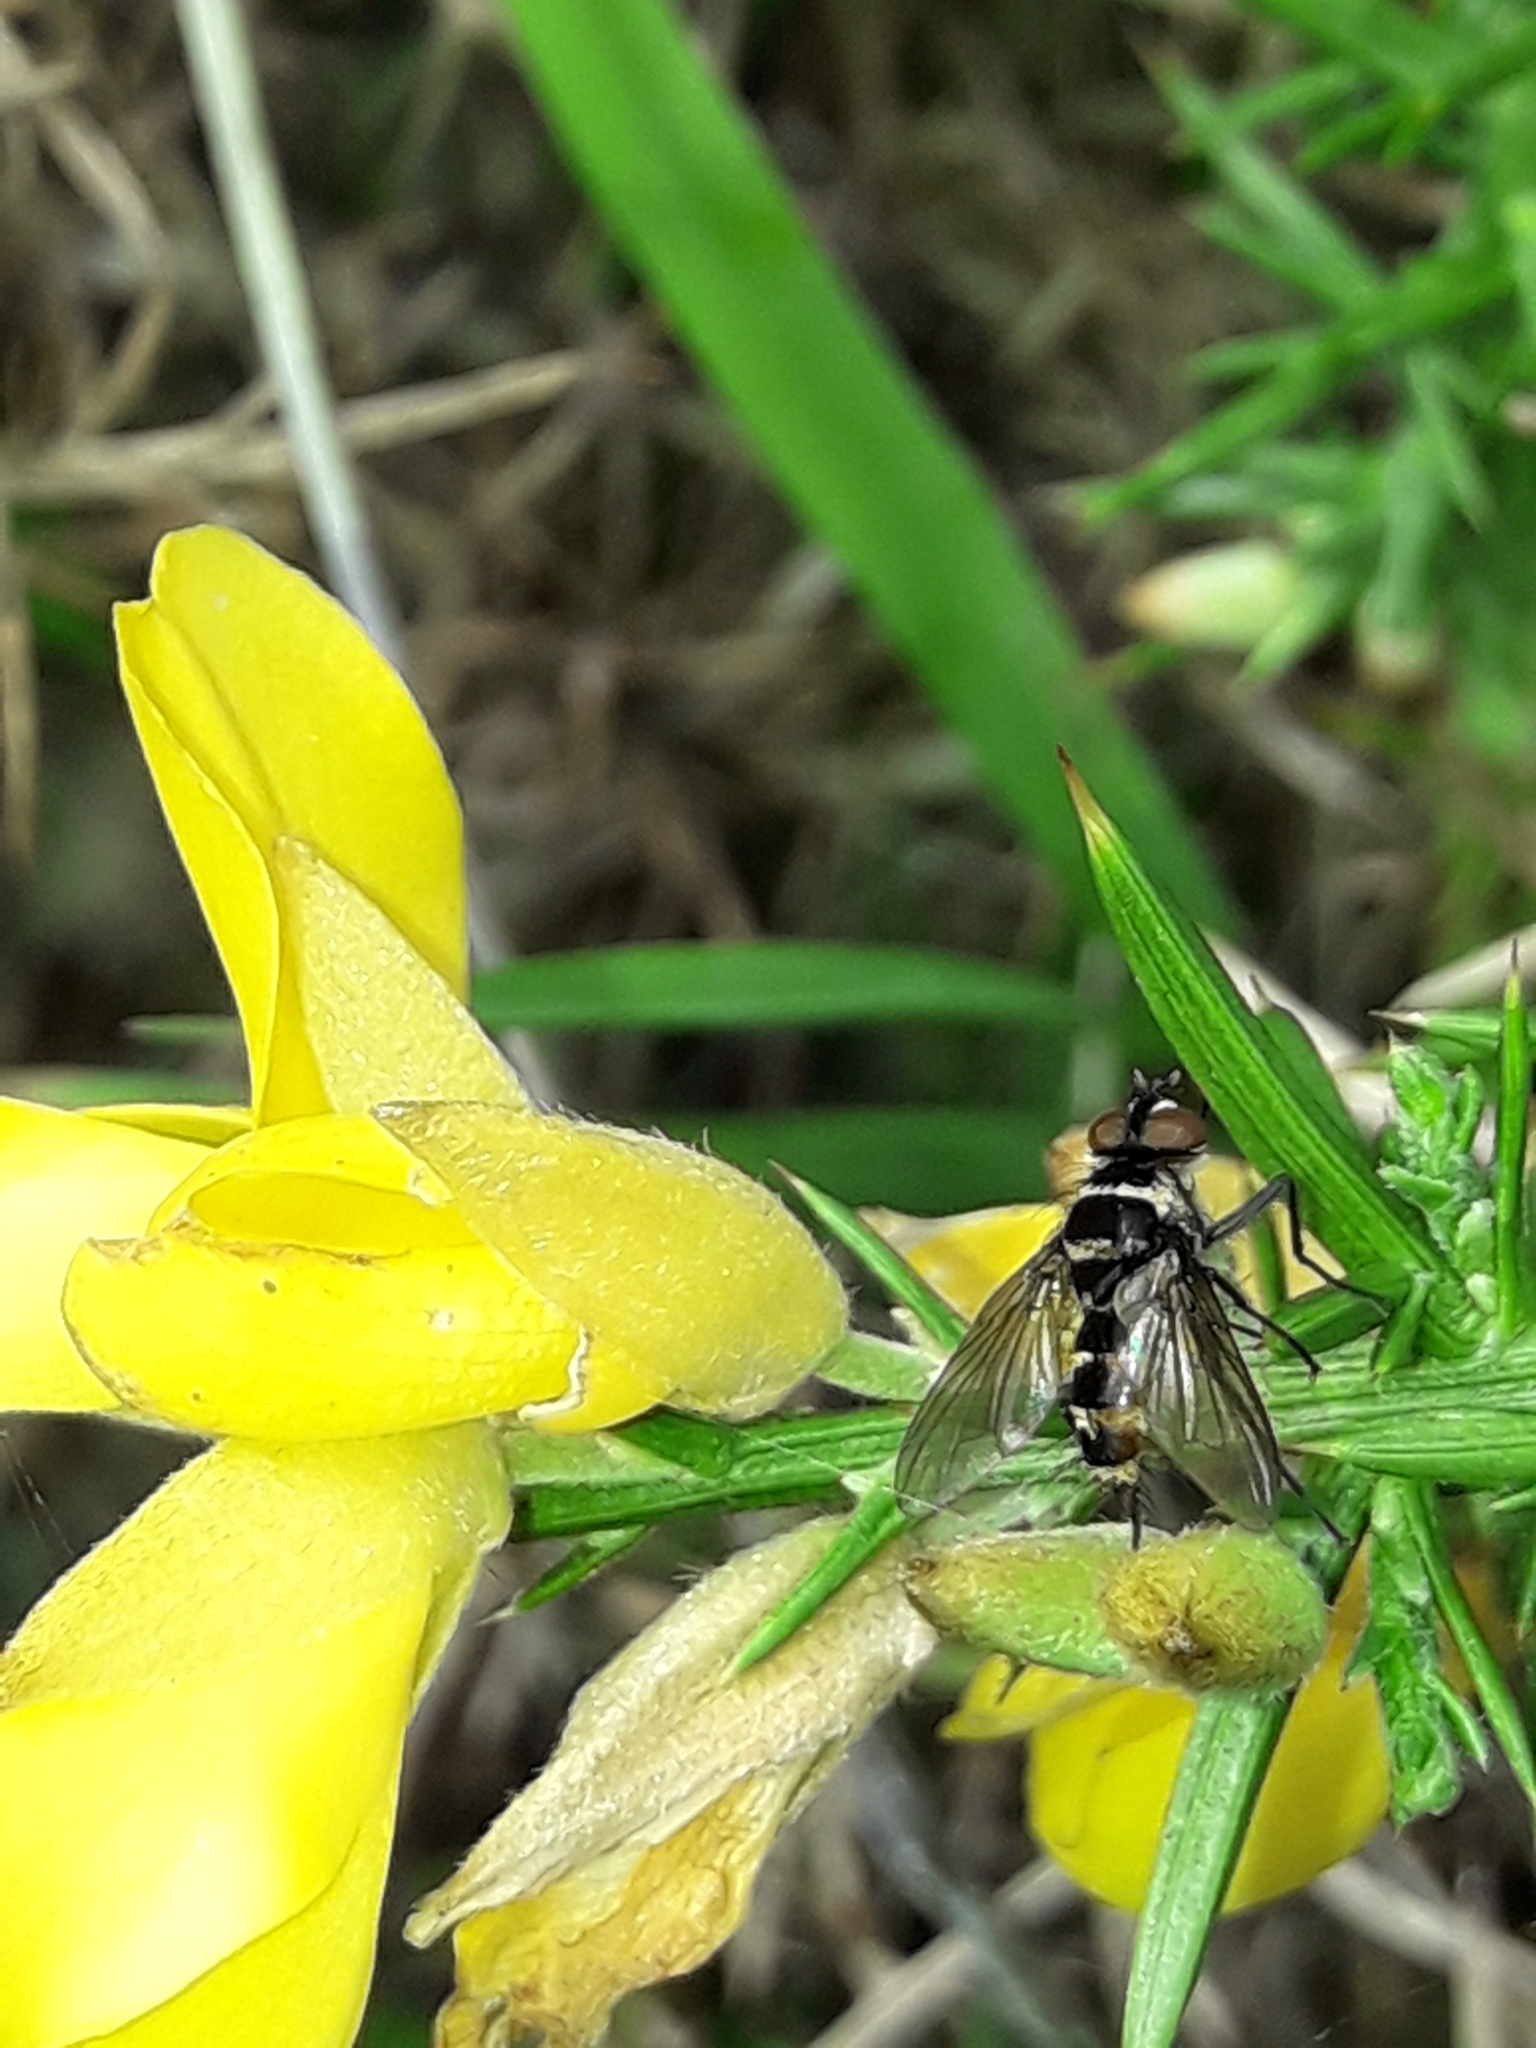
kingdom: Animalia
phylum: Arthropoda
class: Insecta
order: Diptera
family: Tachinidae
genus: Trigonospila
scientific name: Trigonospila brevifacies
